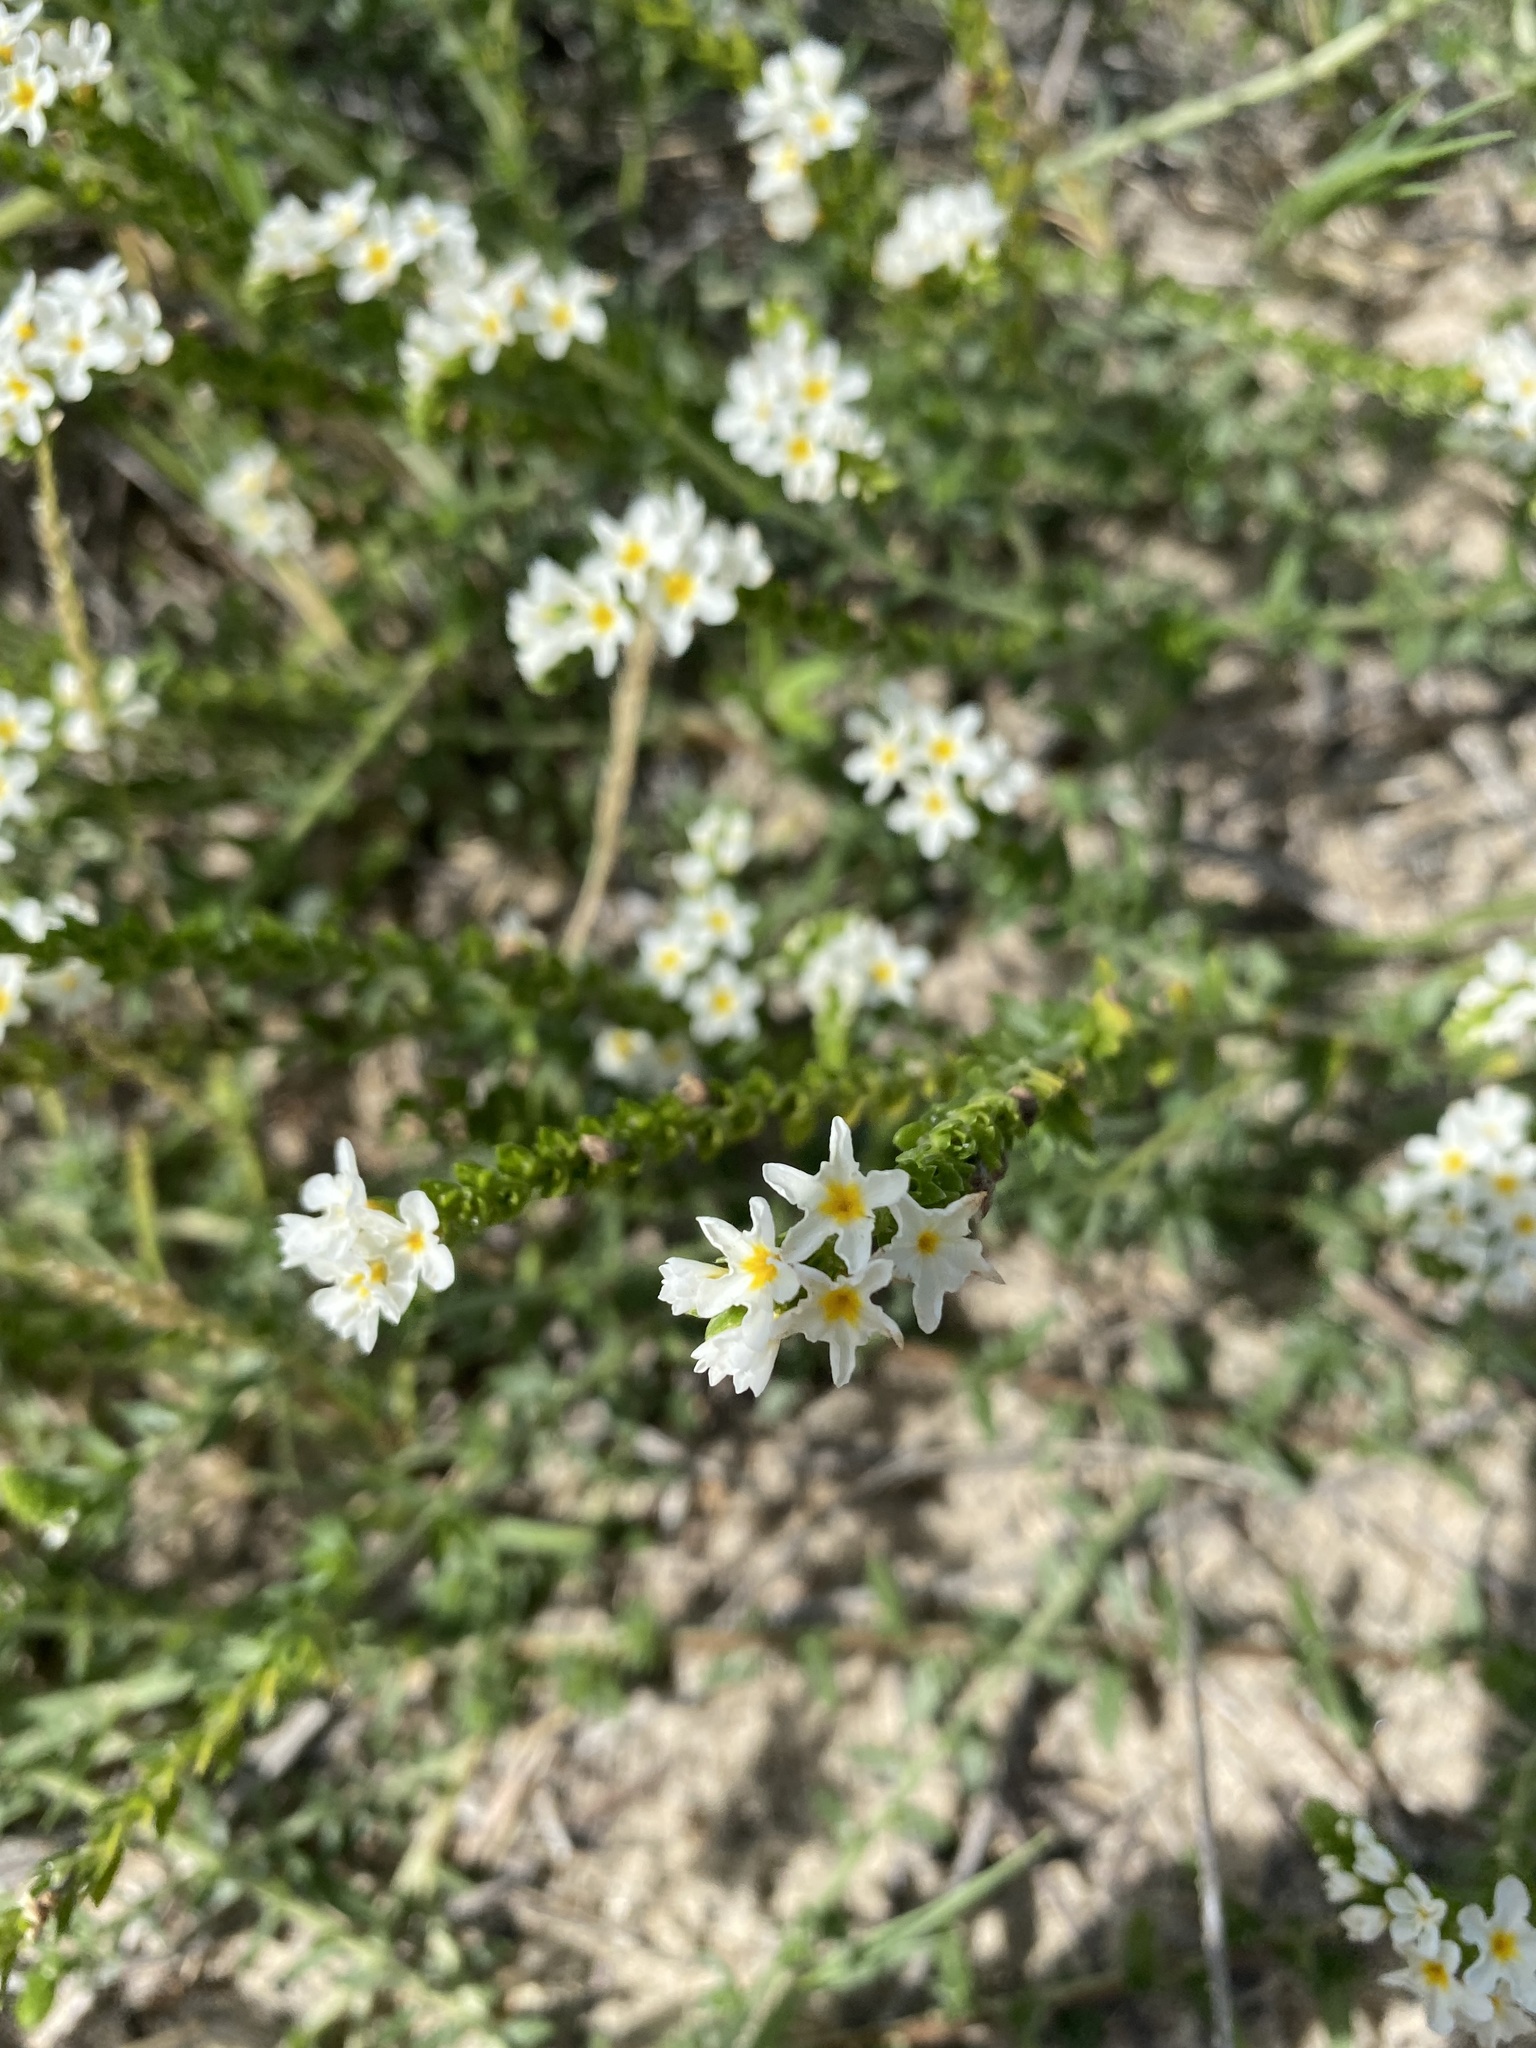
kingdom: Plantae
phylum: Tracheophyta
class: Magnoliopsida
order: Boraginales
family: Heliotropiaceae
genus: Euploca
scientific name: Euploca polyphylla
